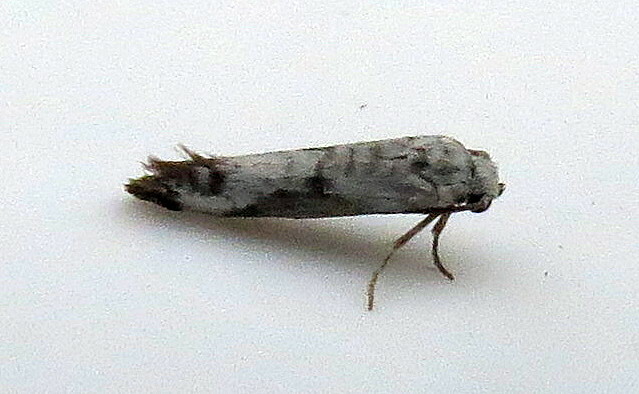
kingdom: Animalia
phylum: Arthropoda
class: Insecta
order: Lepidoptera
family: Praydidae
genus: Prays
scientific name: Prays fraxinella
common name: Ash bud moth
